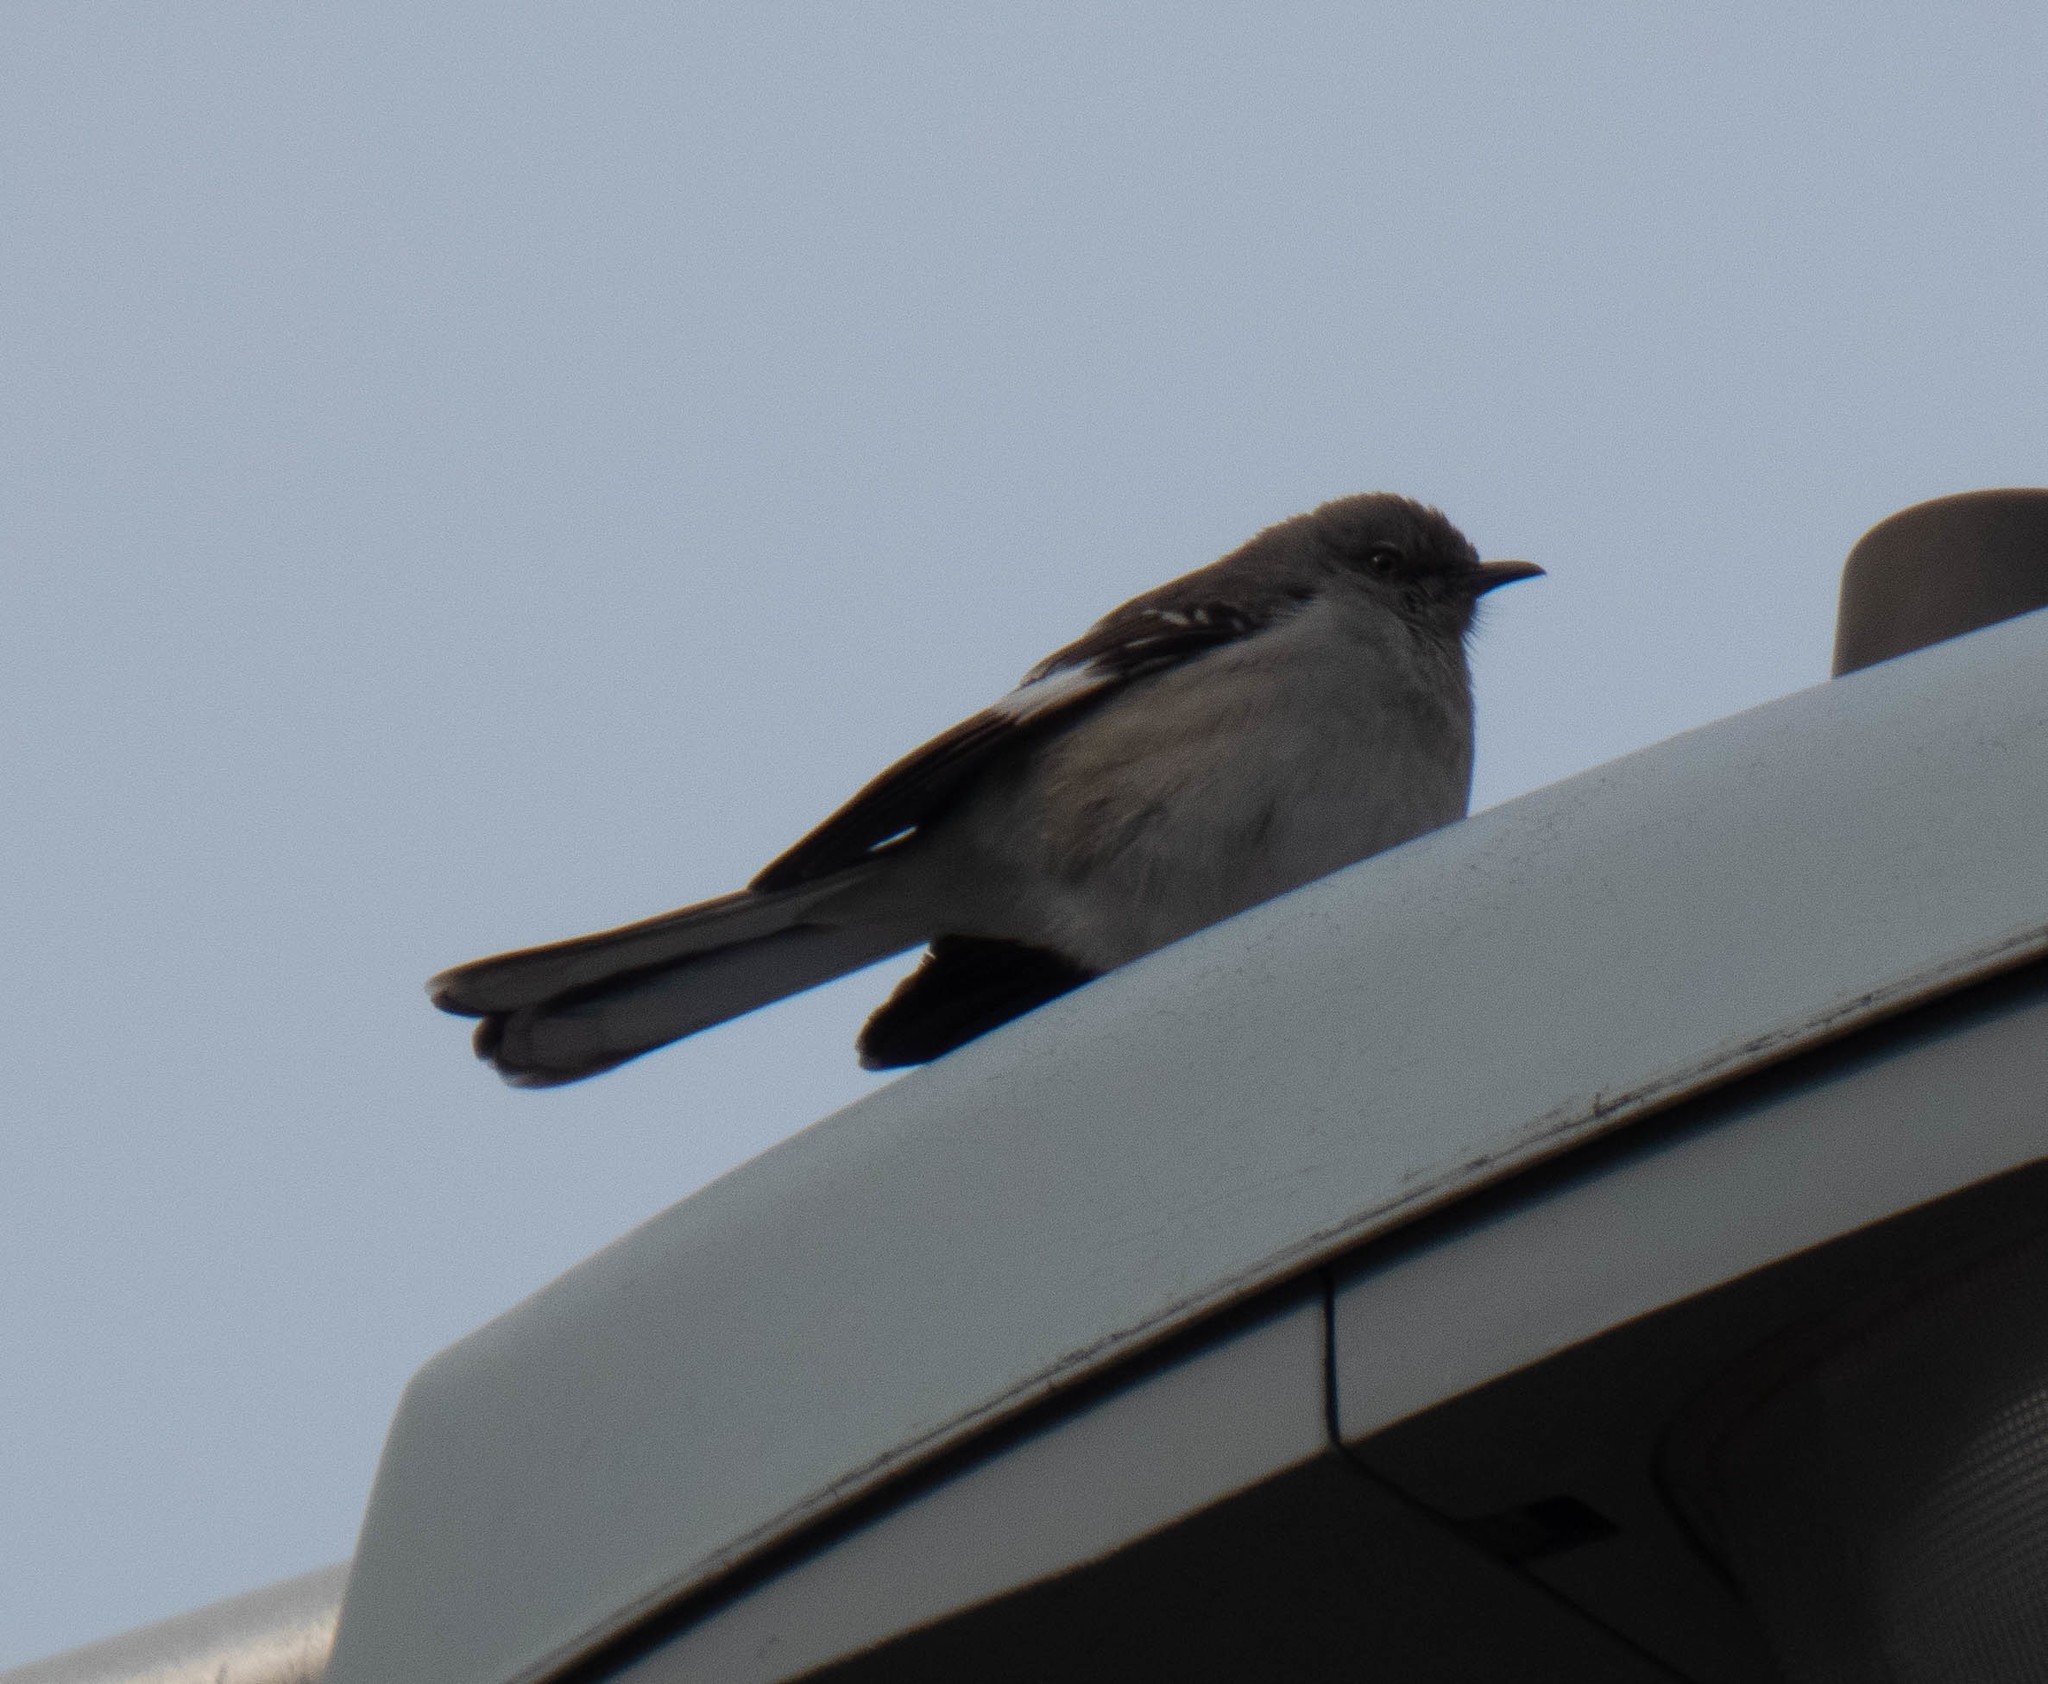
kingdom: Animalia
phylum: Chordata
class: Aves
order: Passeriformes
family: Mimidae
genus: Mimus
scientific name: Mimus polyglottos
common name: Northern mockingbird
